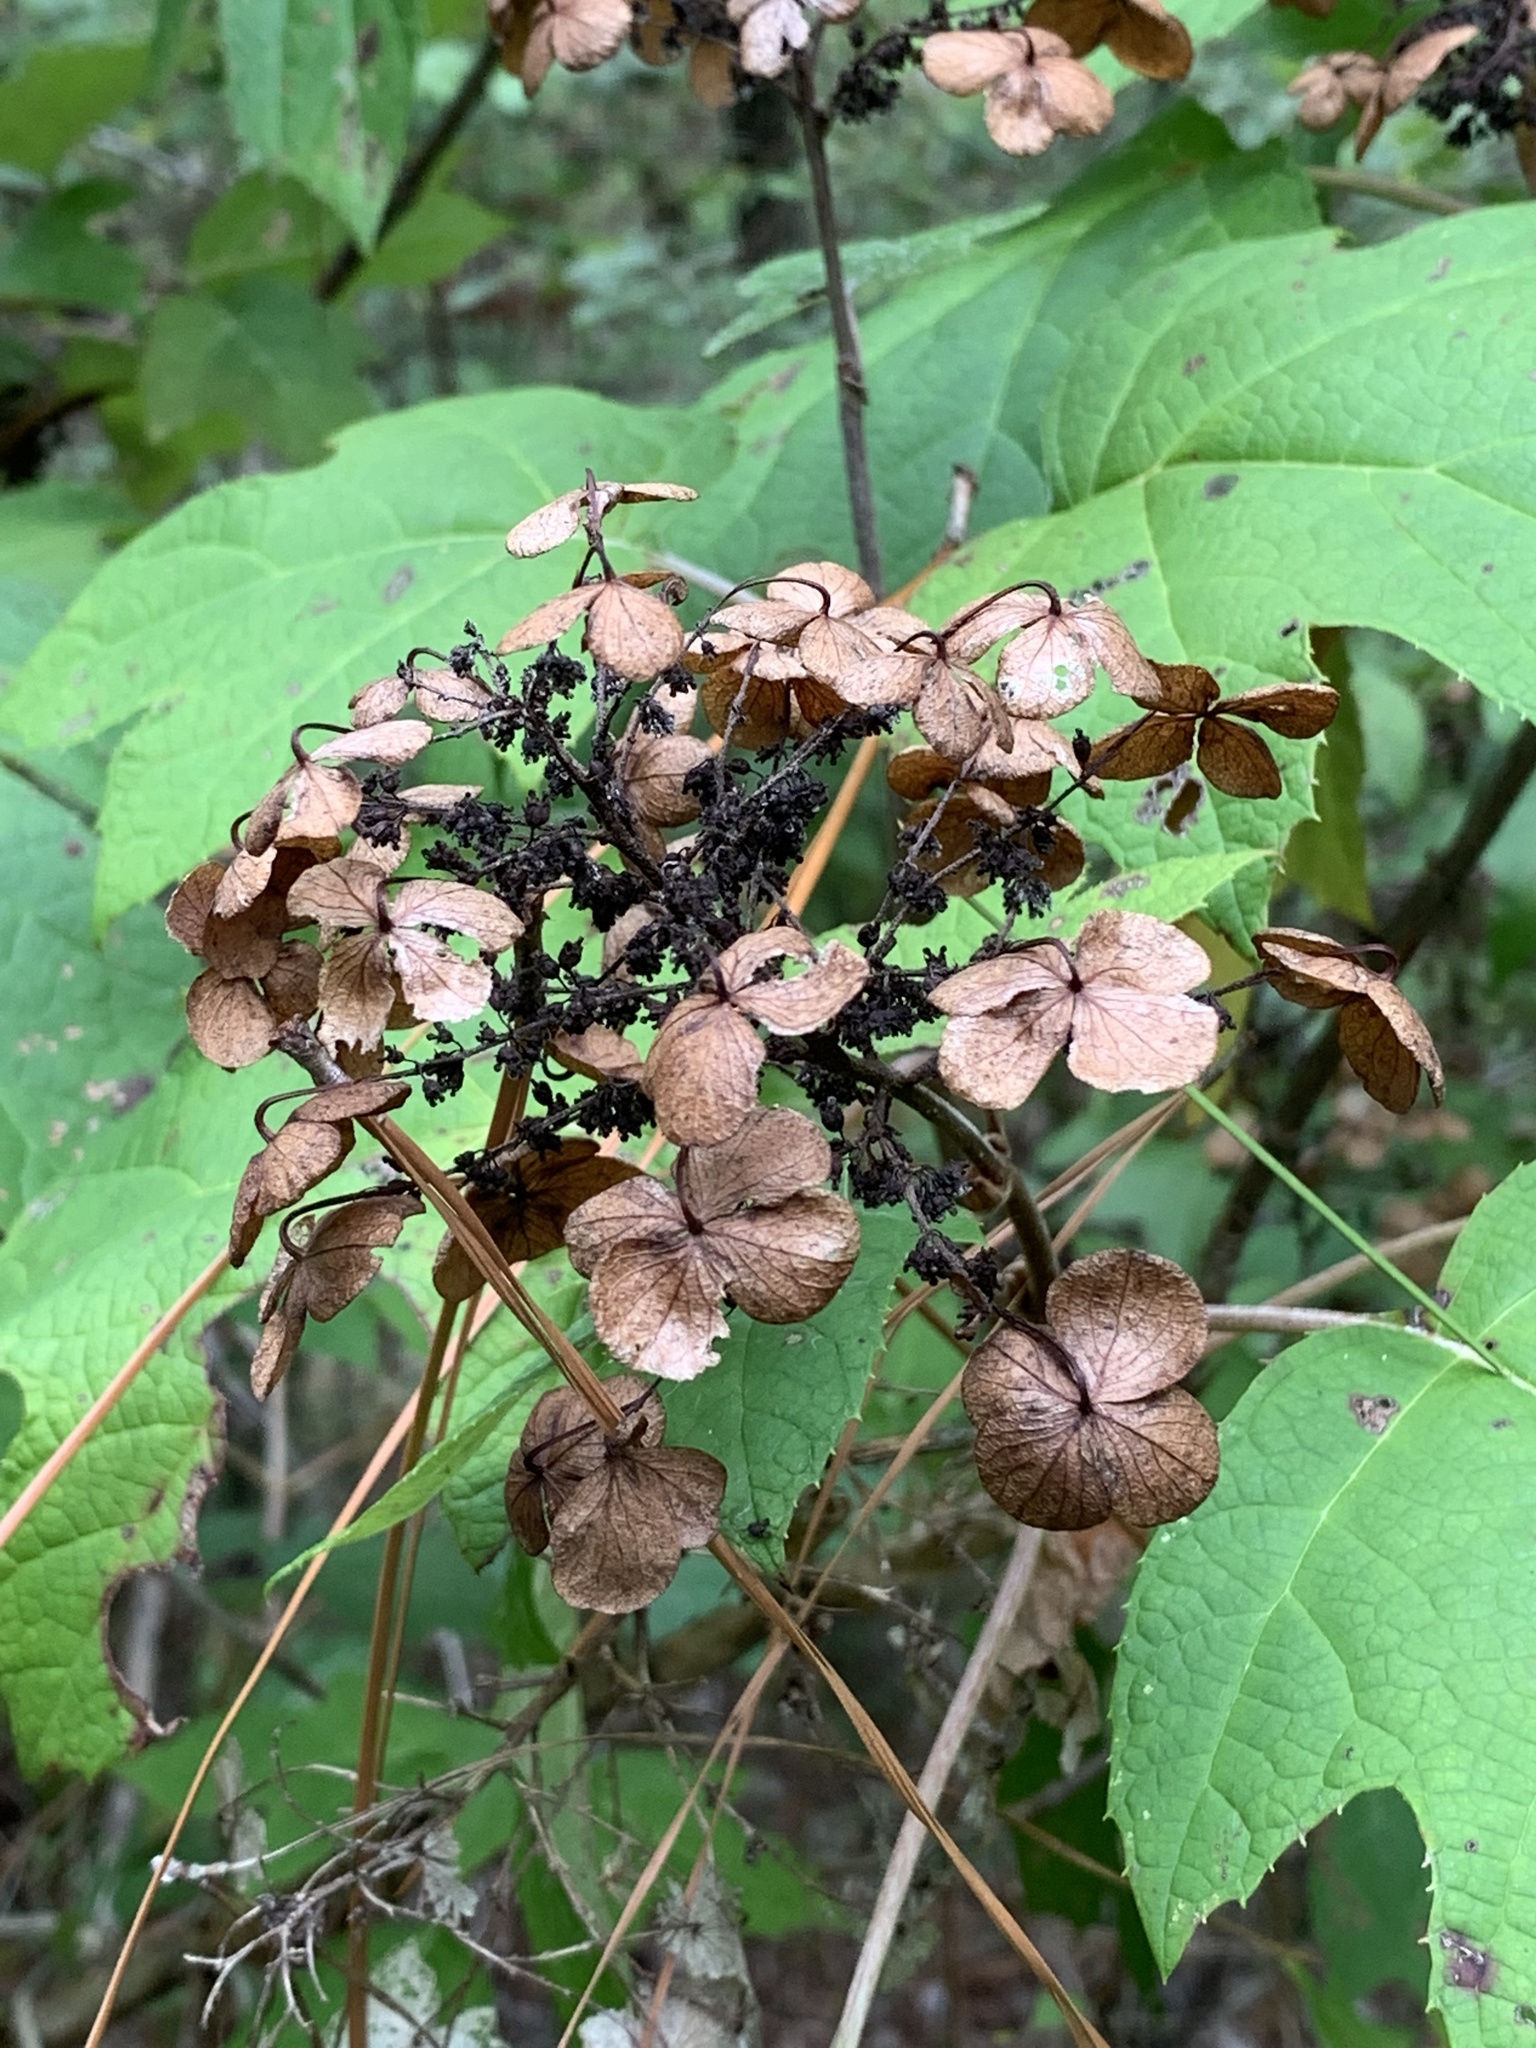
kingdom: Plantae
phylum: Tracheophyta
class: Magnoliopsida
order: Cornales
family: Hydrangeaceae
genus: Hydrangea
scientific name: Hydrangea quercifolia
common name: Oak-leaf hydrangea
